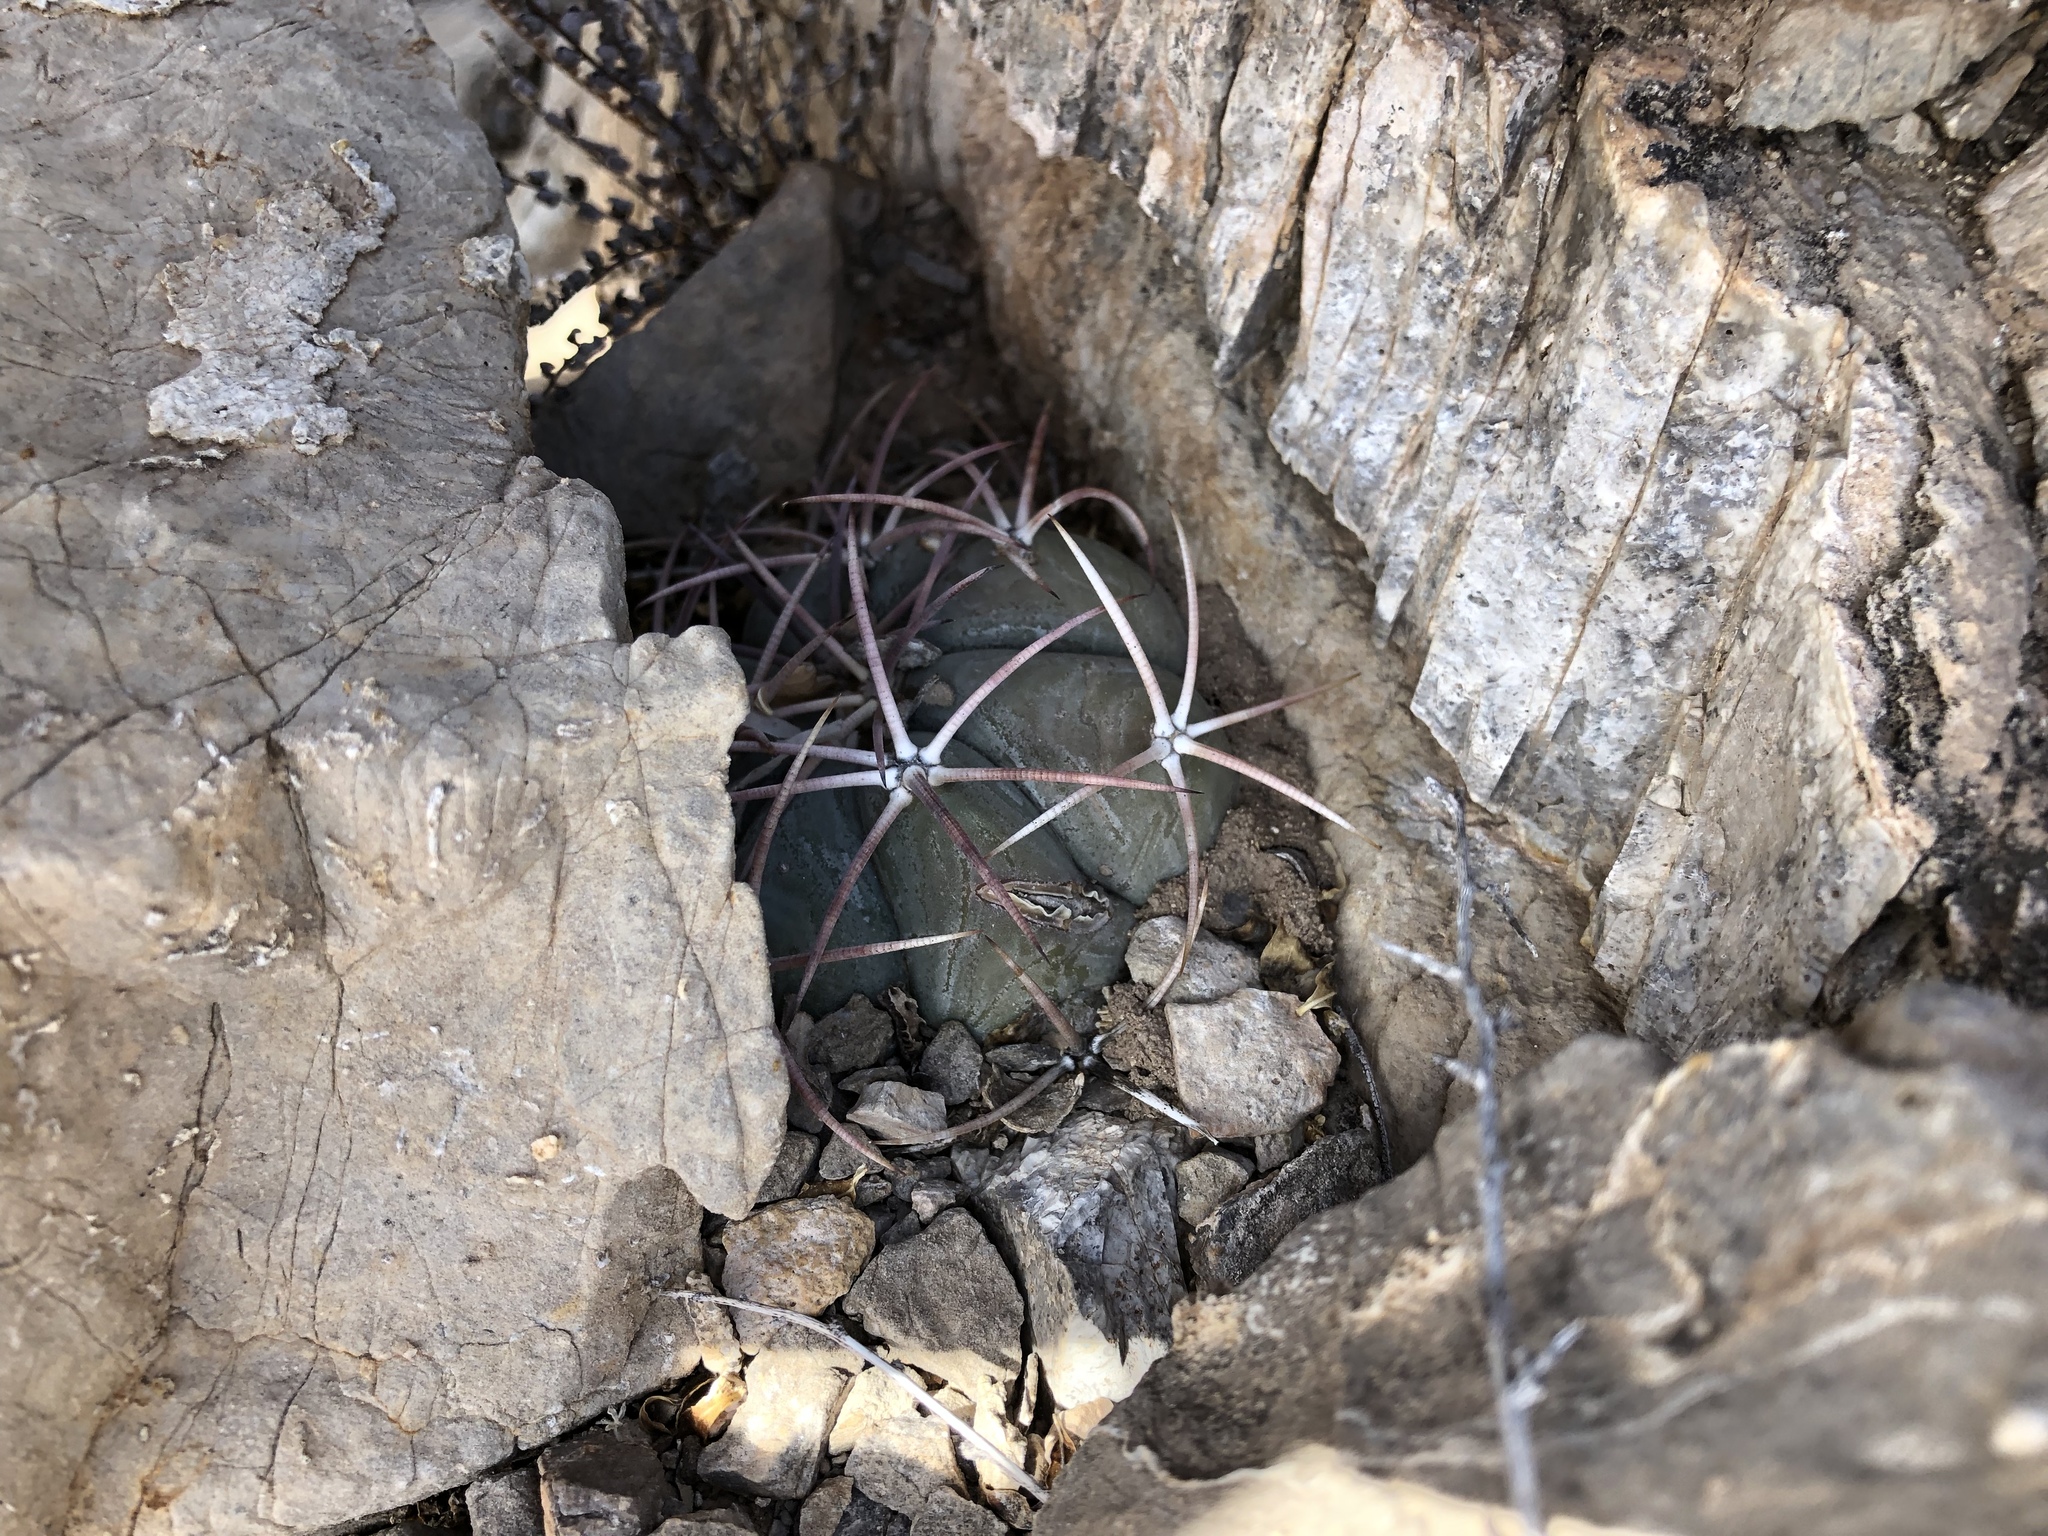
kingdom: Plantae
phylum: Tracheophyta
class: Magnoliopsida
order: Caryophyllales
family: Cactaceae
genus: Echinocactus
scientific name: Echinocactus horizonthalonius
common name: Devilshead
